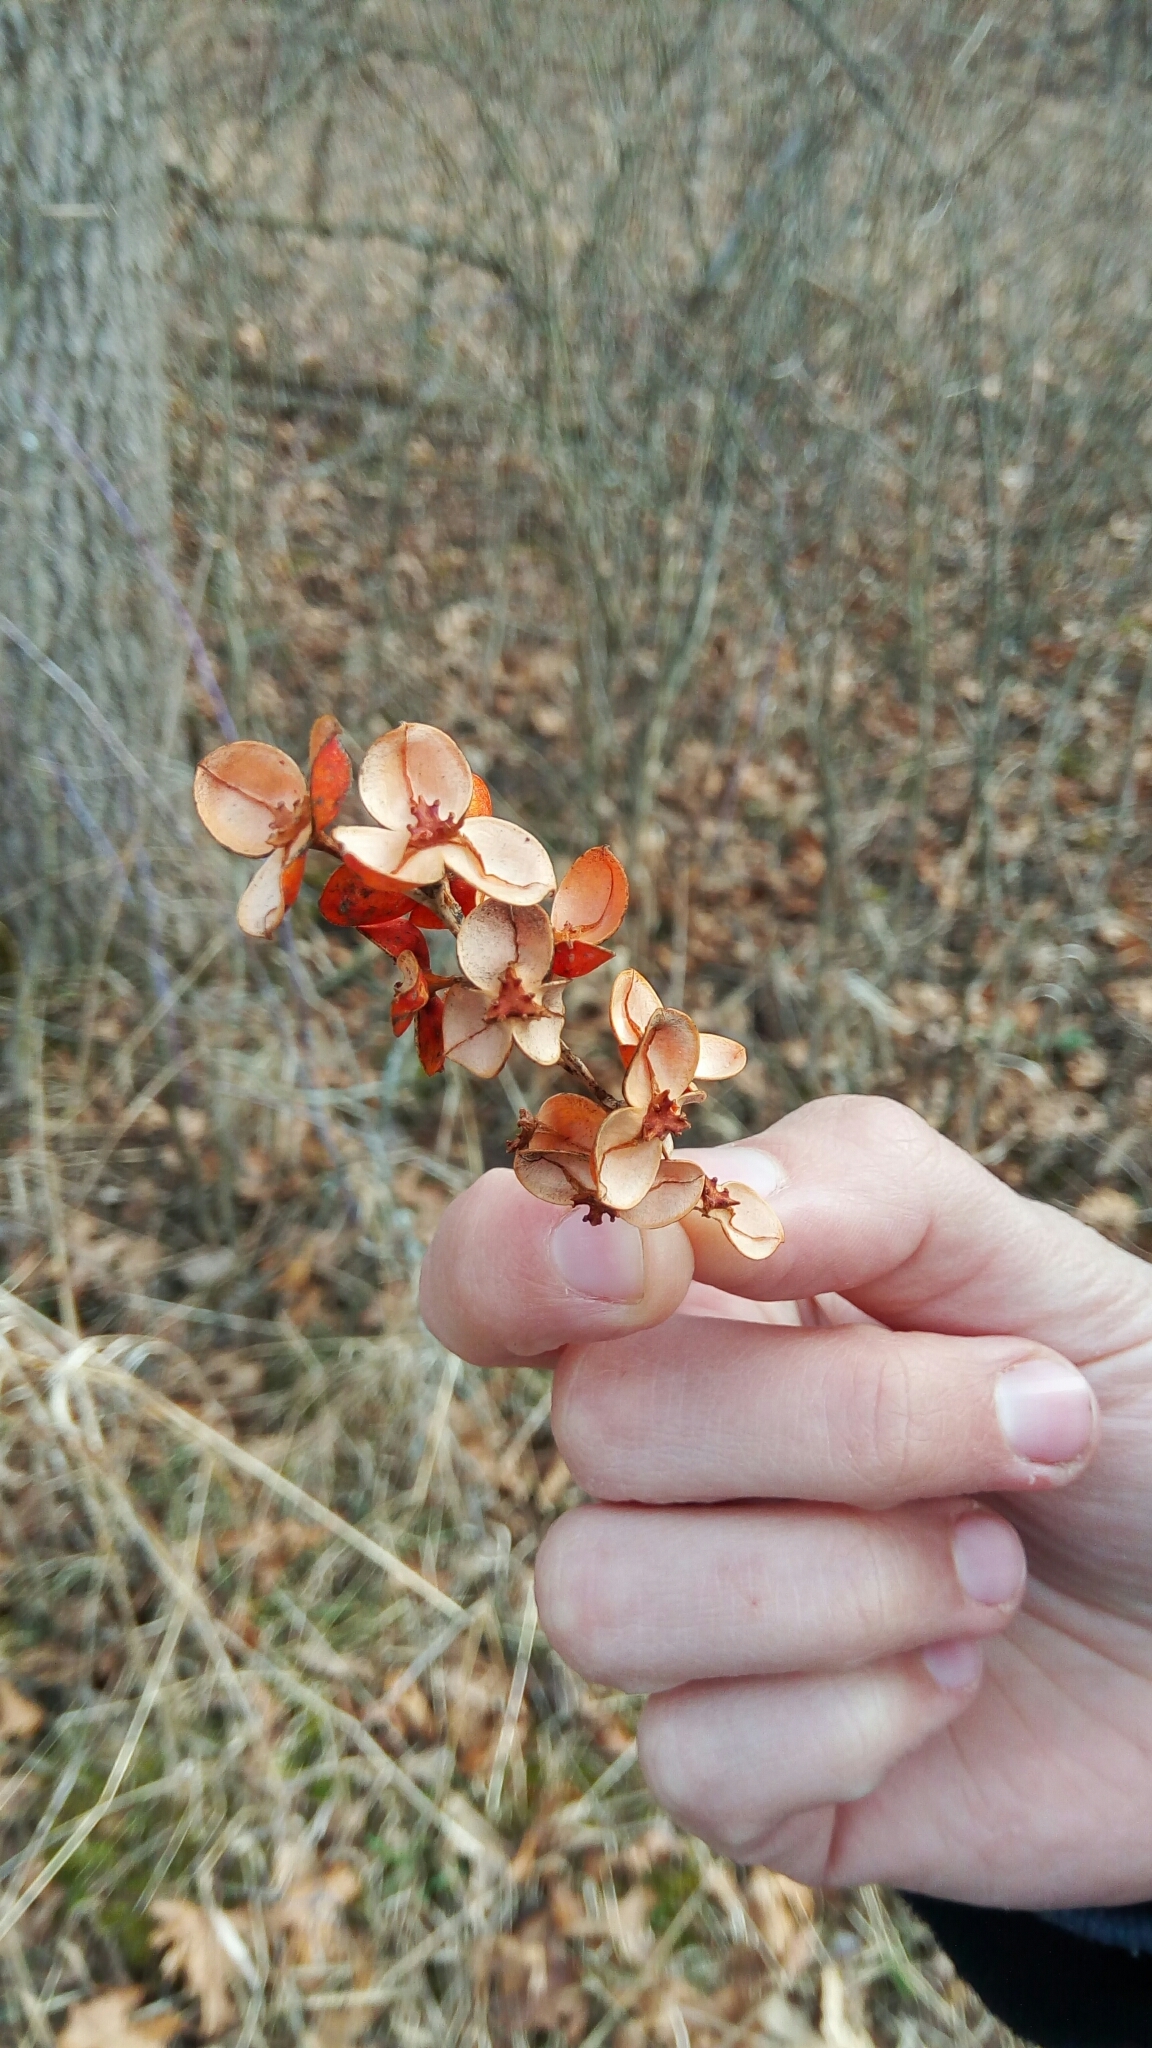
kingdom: Plantae
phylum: Tracheophyta
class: Magnoliopsida
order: Celastrales
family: Celastraceae
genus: Celastrus
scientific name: Celastrus scandens
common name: American bittersweet
